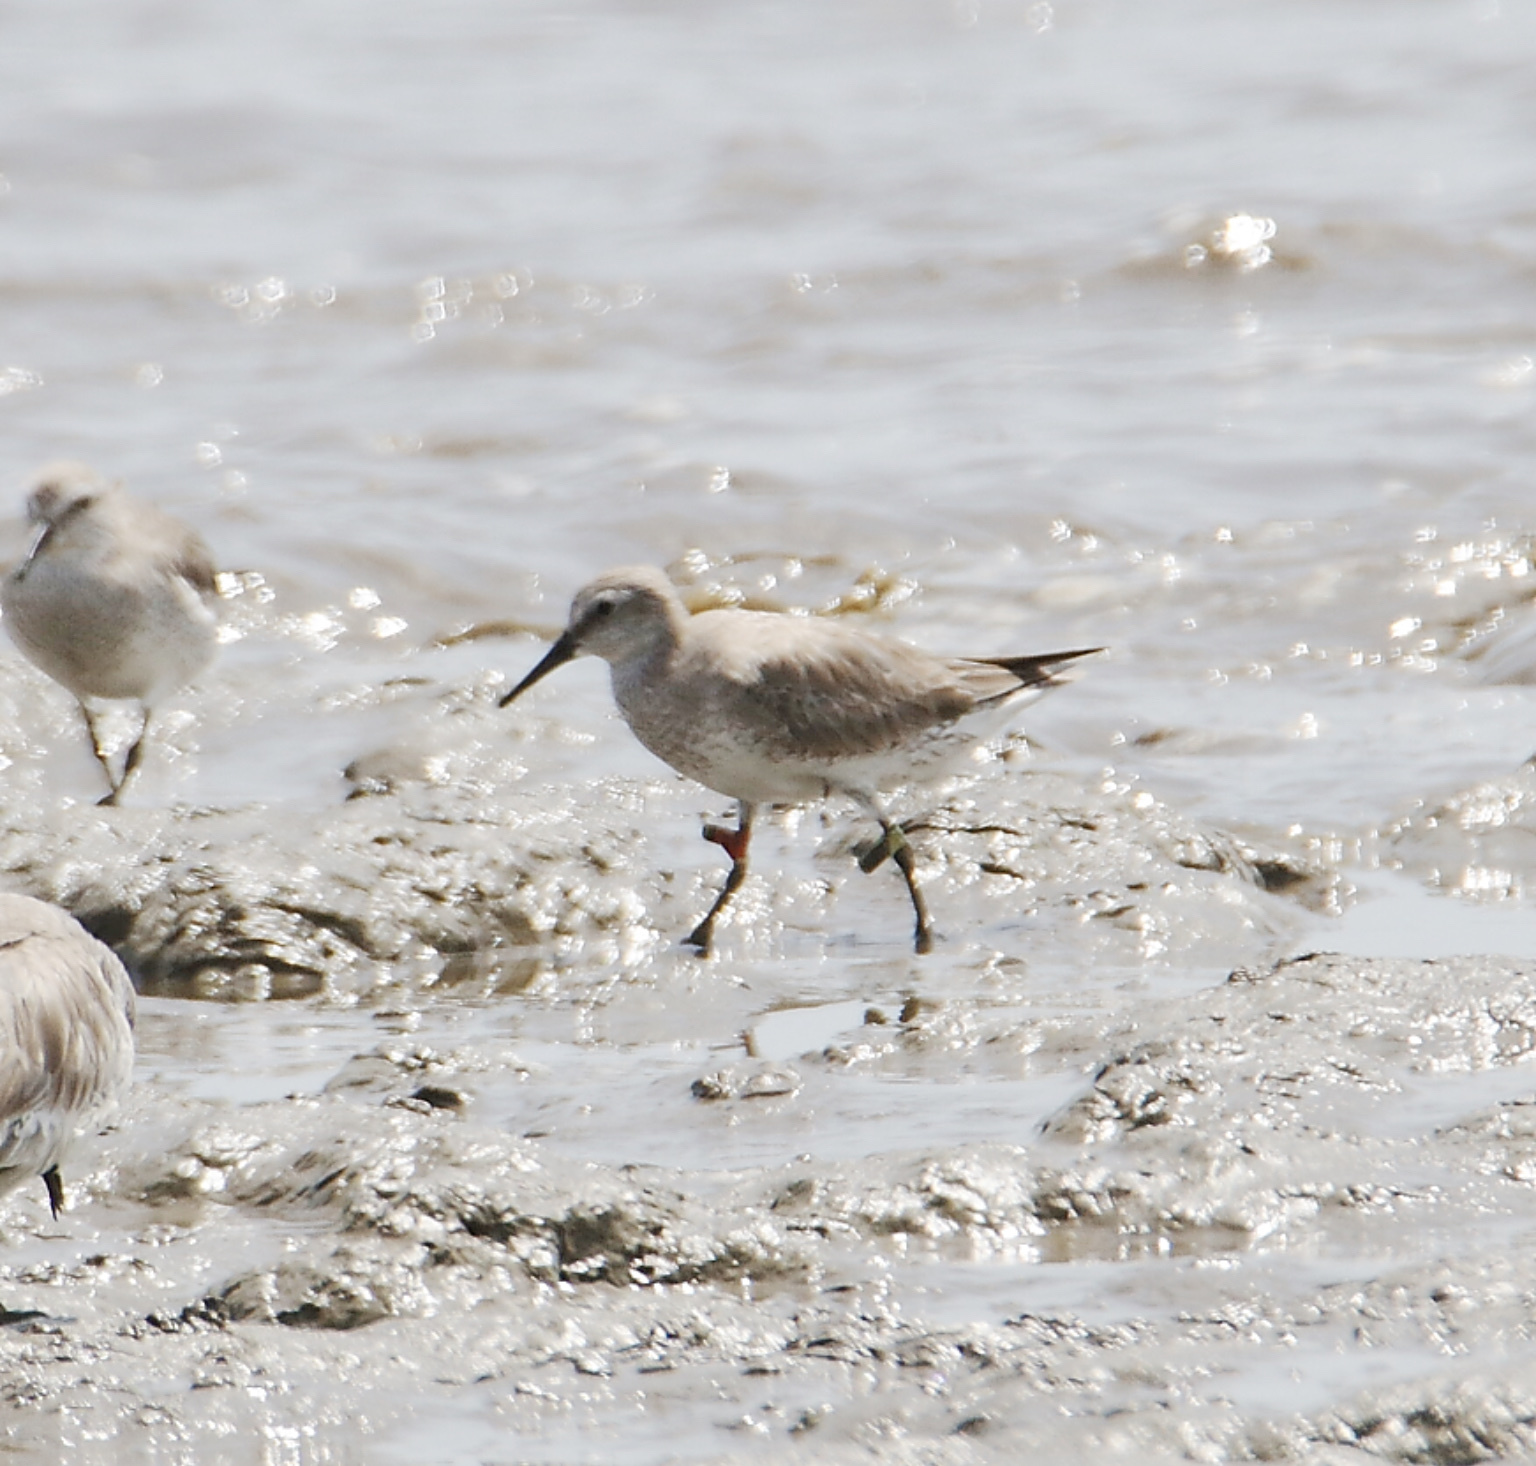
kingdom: Animalia
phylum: Chordata
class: Aves
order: Charadriiformes
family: Scolopacidae
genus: Calidris
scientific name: Calidris canutus
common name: Red knot
